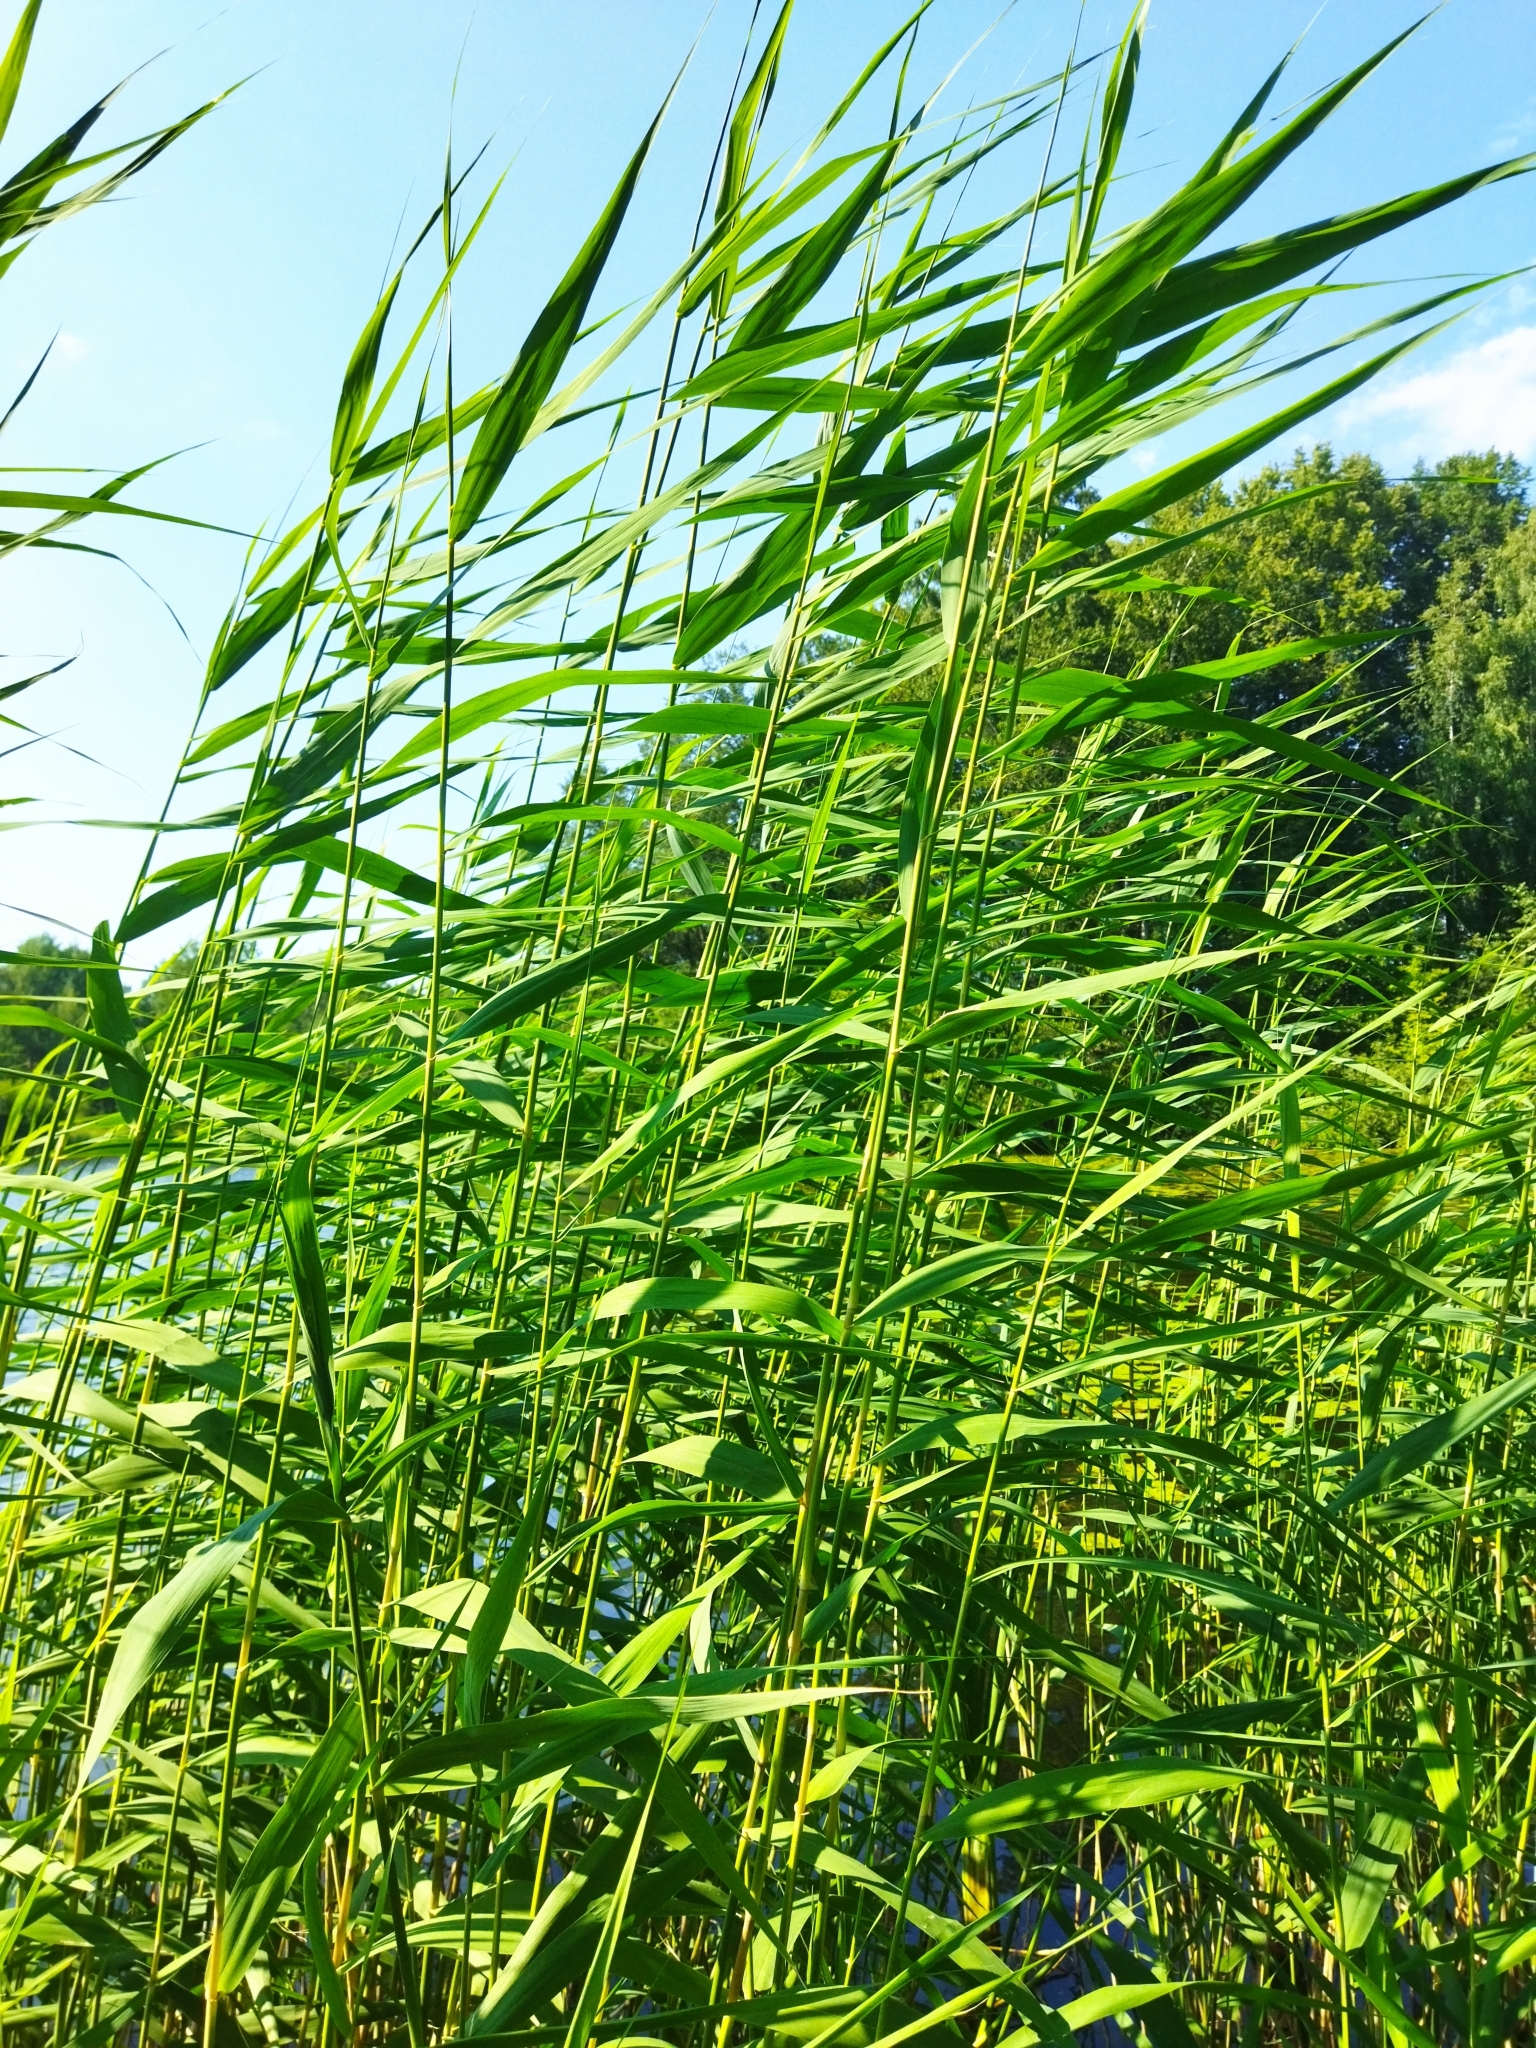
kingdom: Plantae
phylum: Tracheophyta
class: Liliopsida
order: Poales
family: Poaceae
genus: Phragmites
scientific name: Phragmites australis
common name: Common reed
